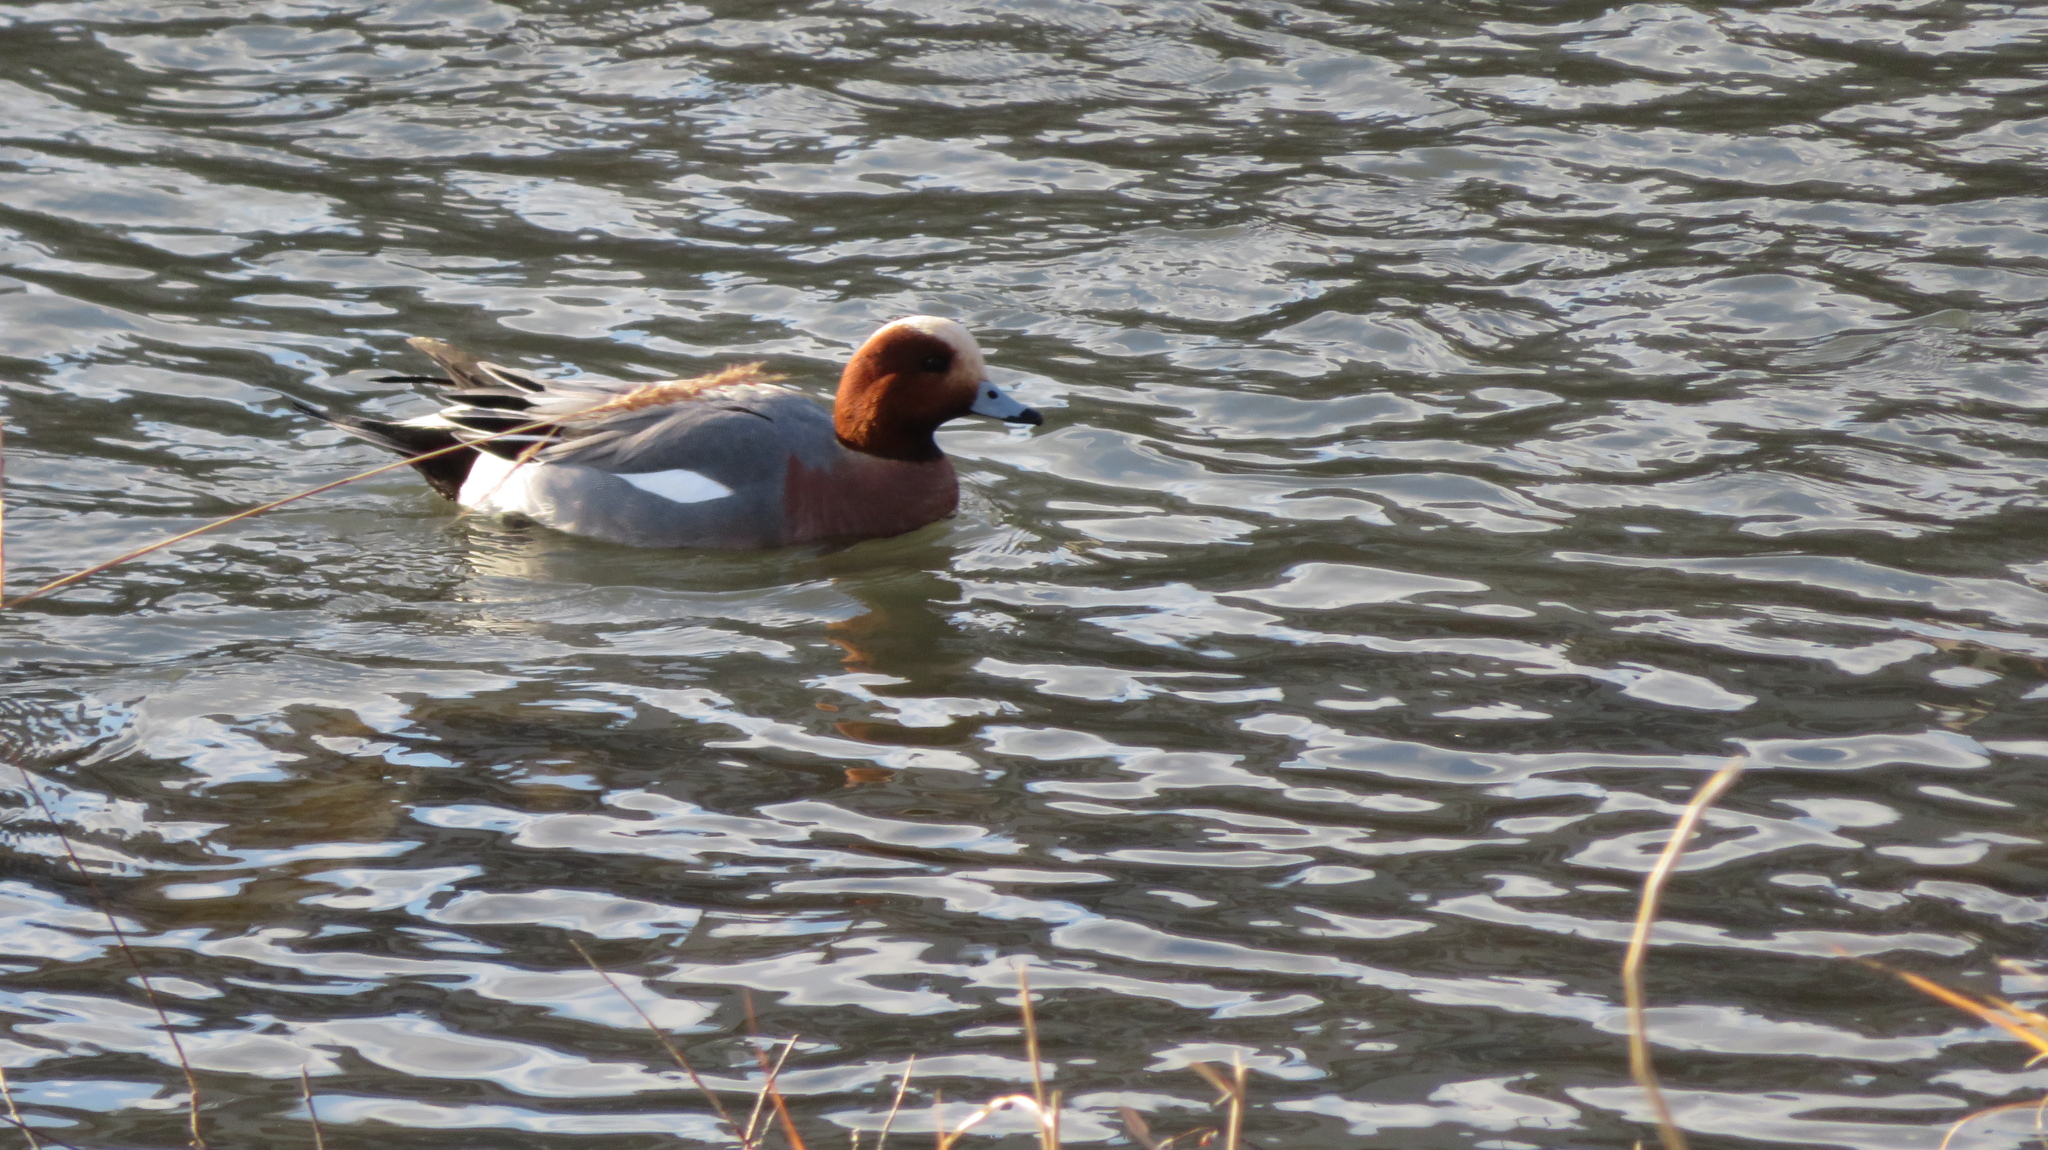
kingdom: Animalia
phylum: Chordata
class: Aves
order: Anseriformes
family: Anatidae
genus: Mareca
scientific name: Mareca penelope
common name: Eurasian wigeon
